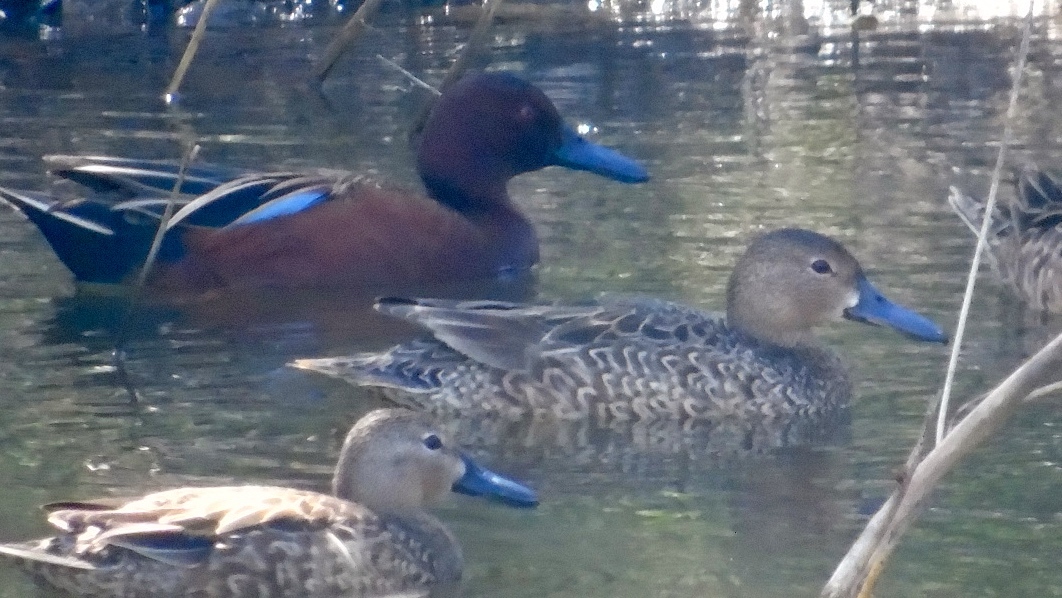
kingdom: Animalia
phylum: Chordata
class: Aves
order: Anseriformes
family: Anatidae
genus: Spatula
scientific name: Spatula cyanoptera
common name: Cinnamon teal
